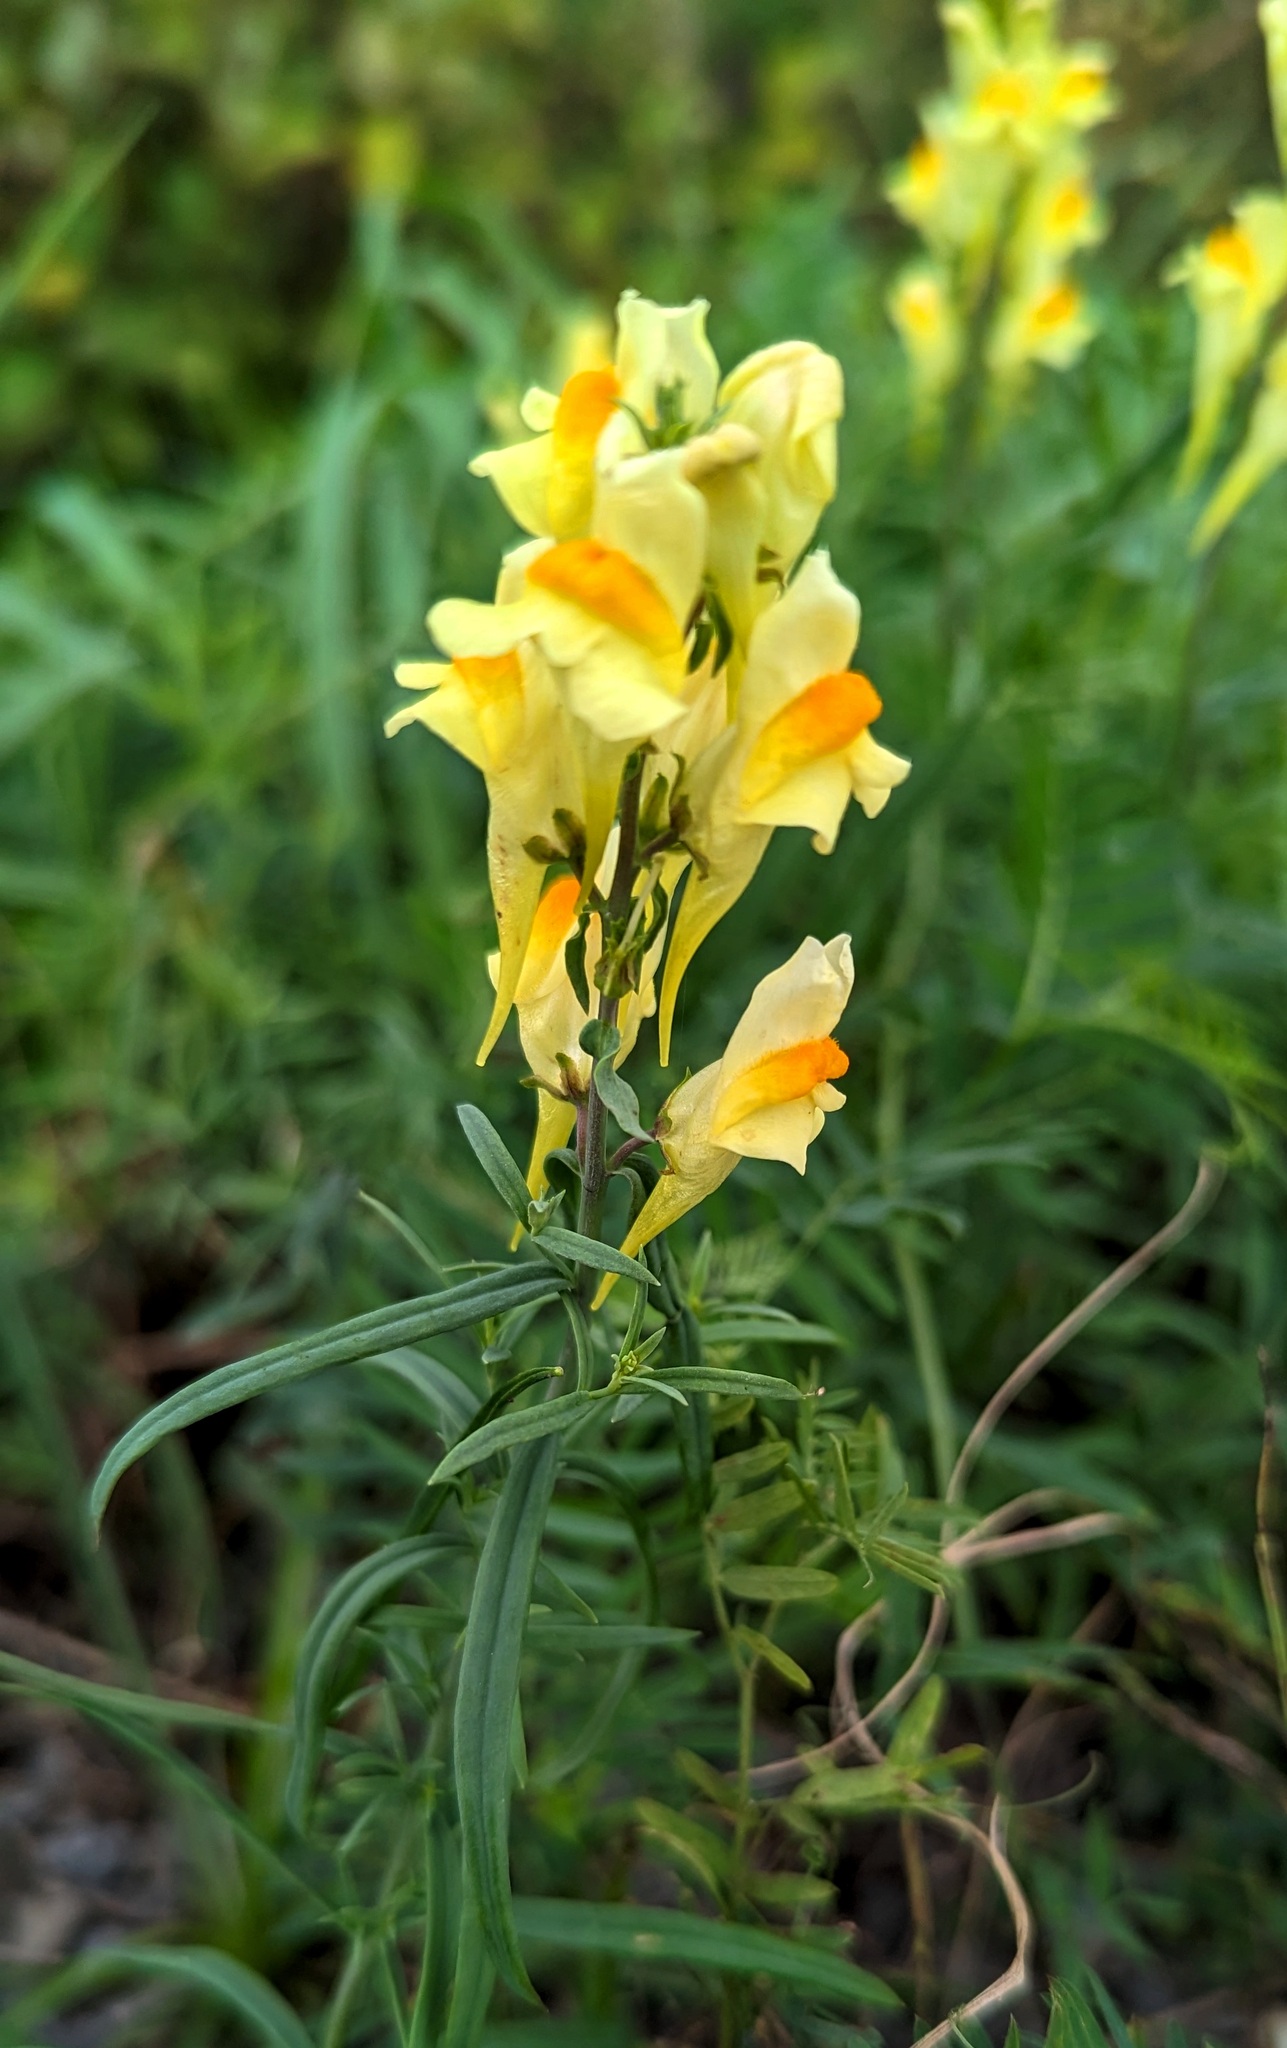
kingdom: Plantae
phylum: Tracheophyta
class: Magnoliopsida
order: Lamiales
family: Plantaginaceae
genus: Linaria
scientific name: Linaria vulgaris
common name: Butter and eggs
